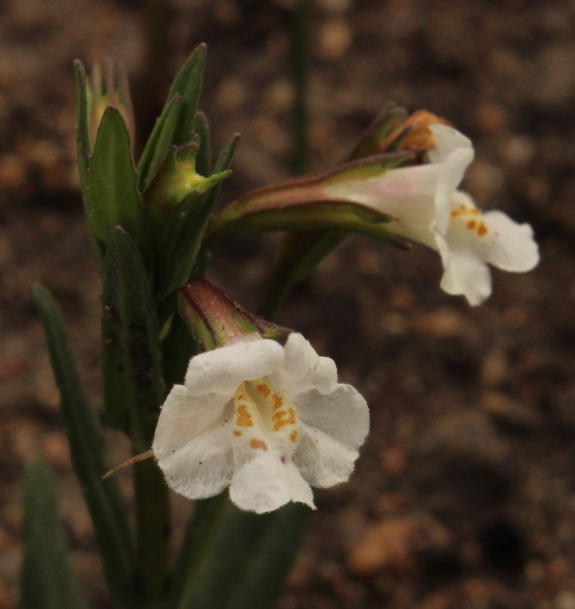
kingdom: Plantae
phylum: Tracheophyta
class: Magnoliopsida
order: Lamiales
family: Phrymaceae
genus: Mimulus
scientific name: Mimulus gracilis
